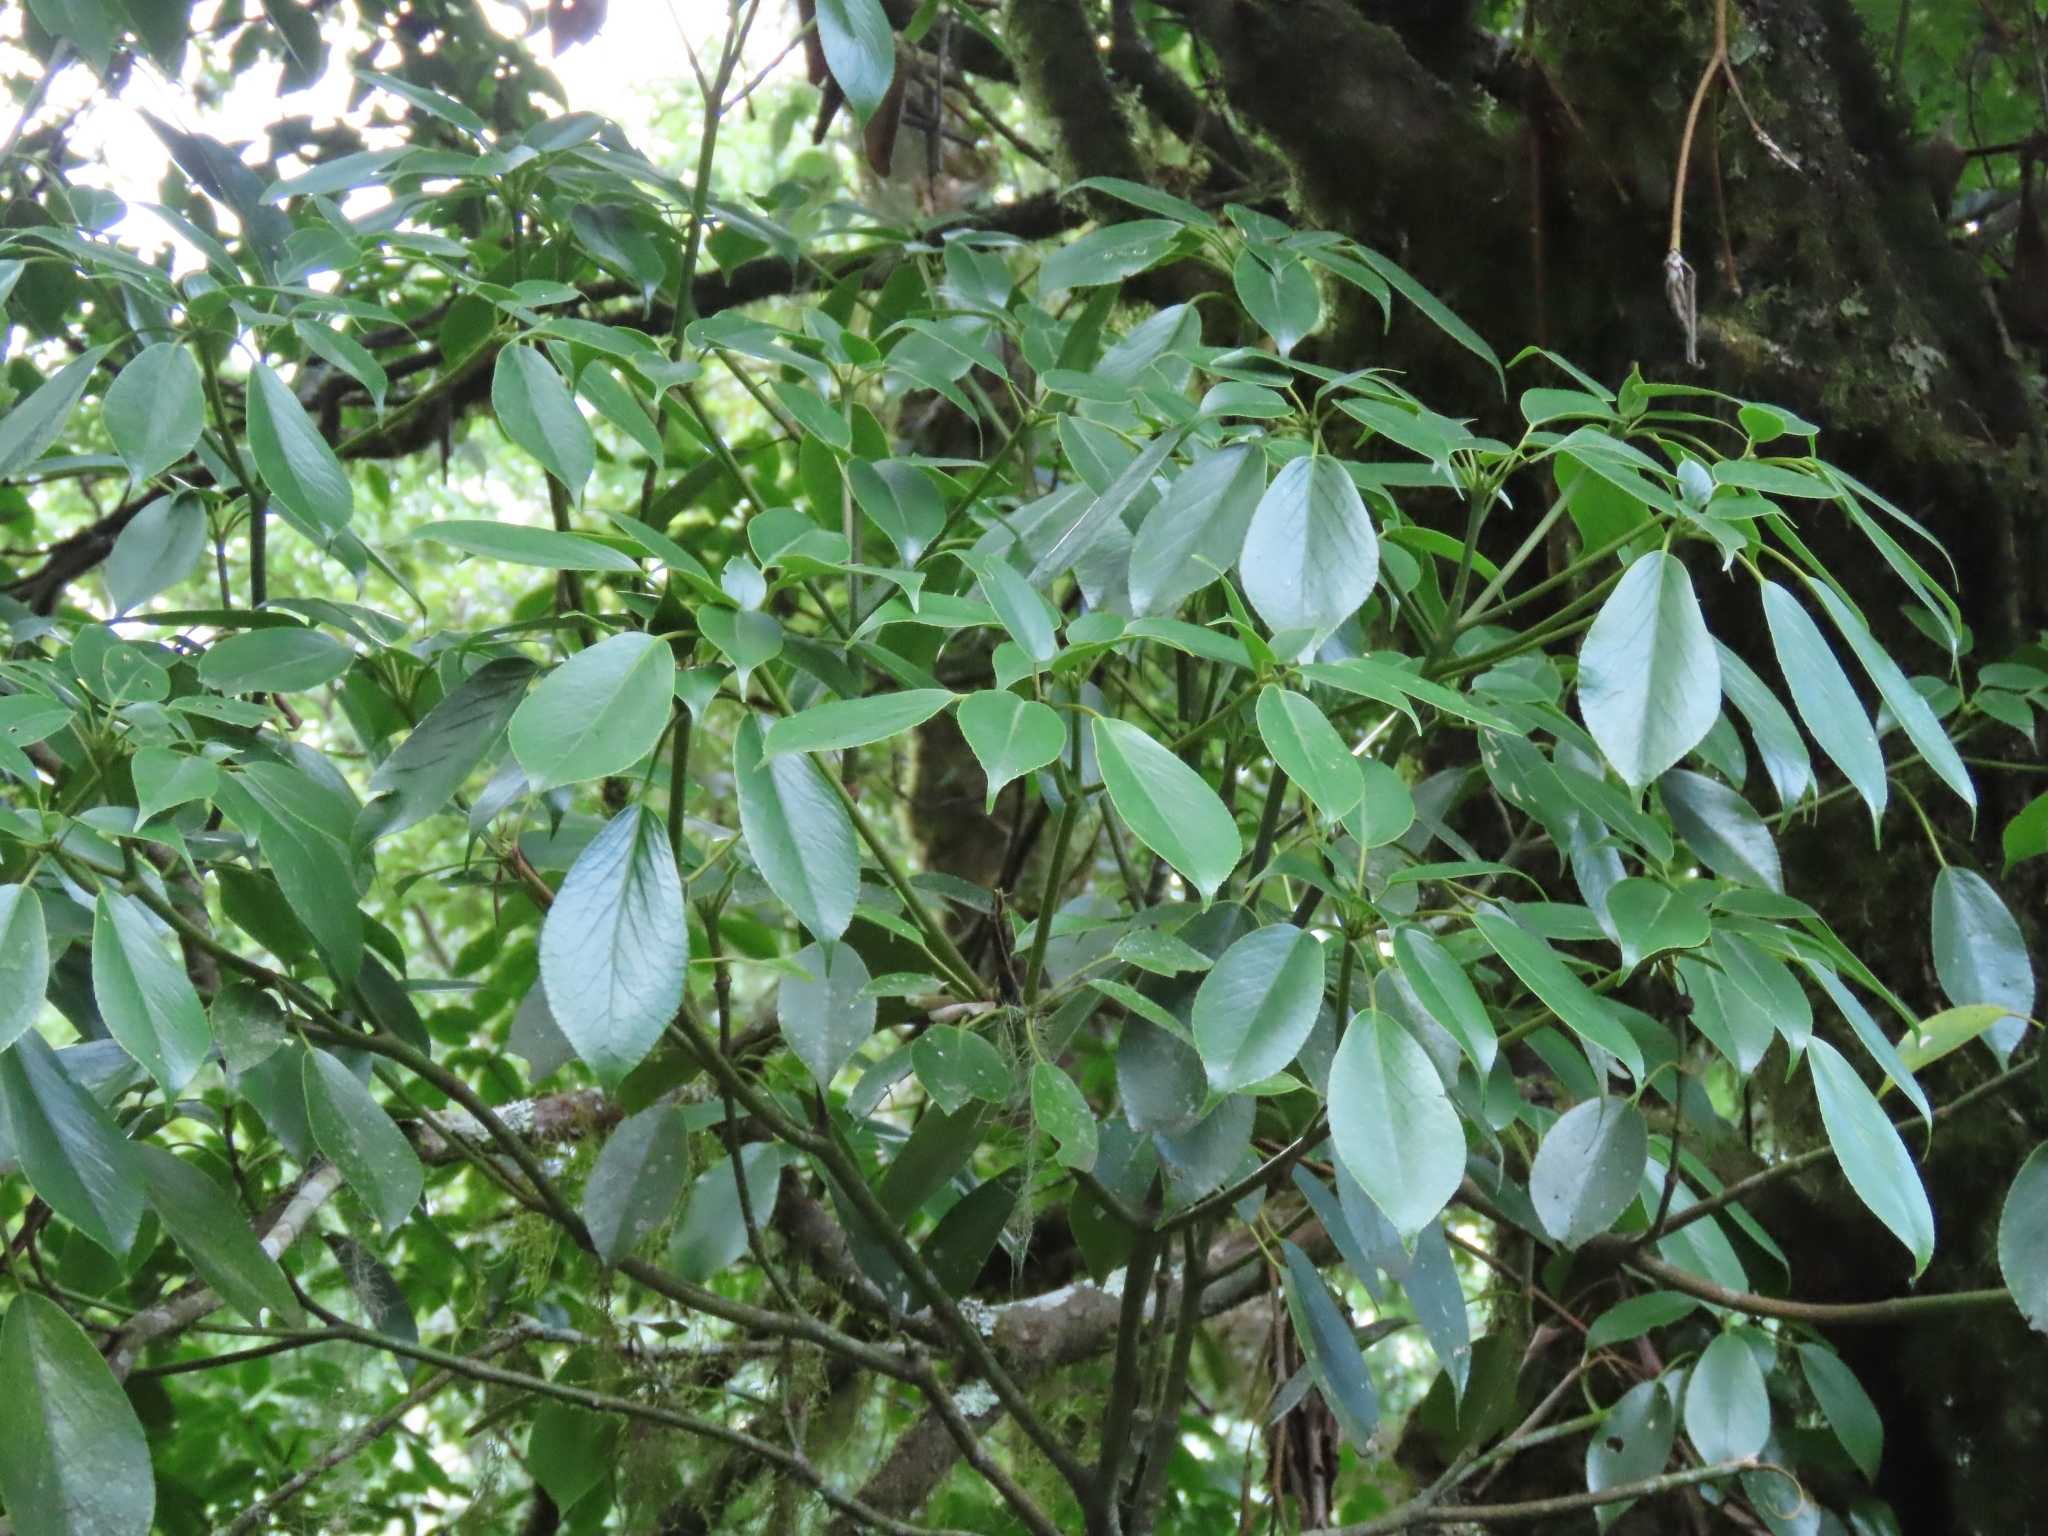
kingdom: Plantae
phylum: Tracheophyta
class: Magnoliopsida
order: Trochodendrales
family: Trochodendraceae
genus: Trochodendron
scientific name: Trochodendron aralioides
